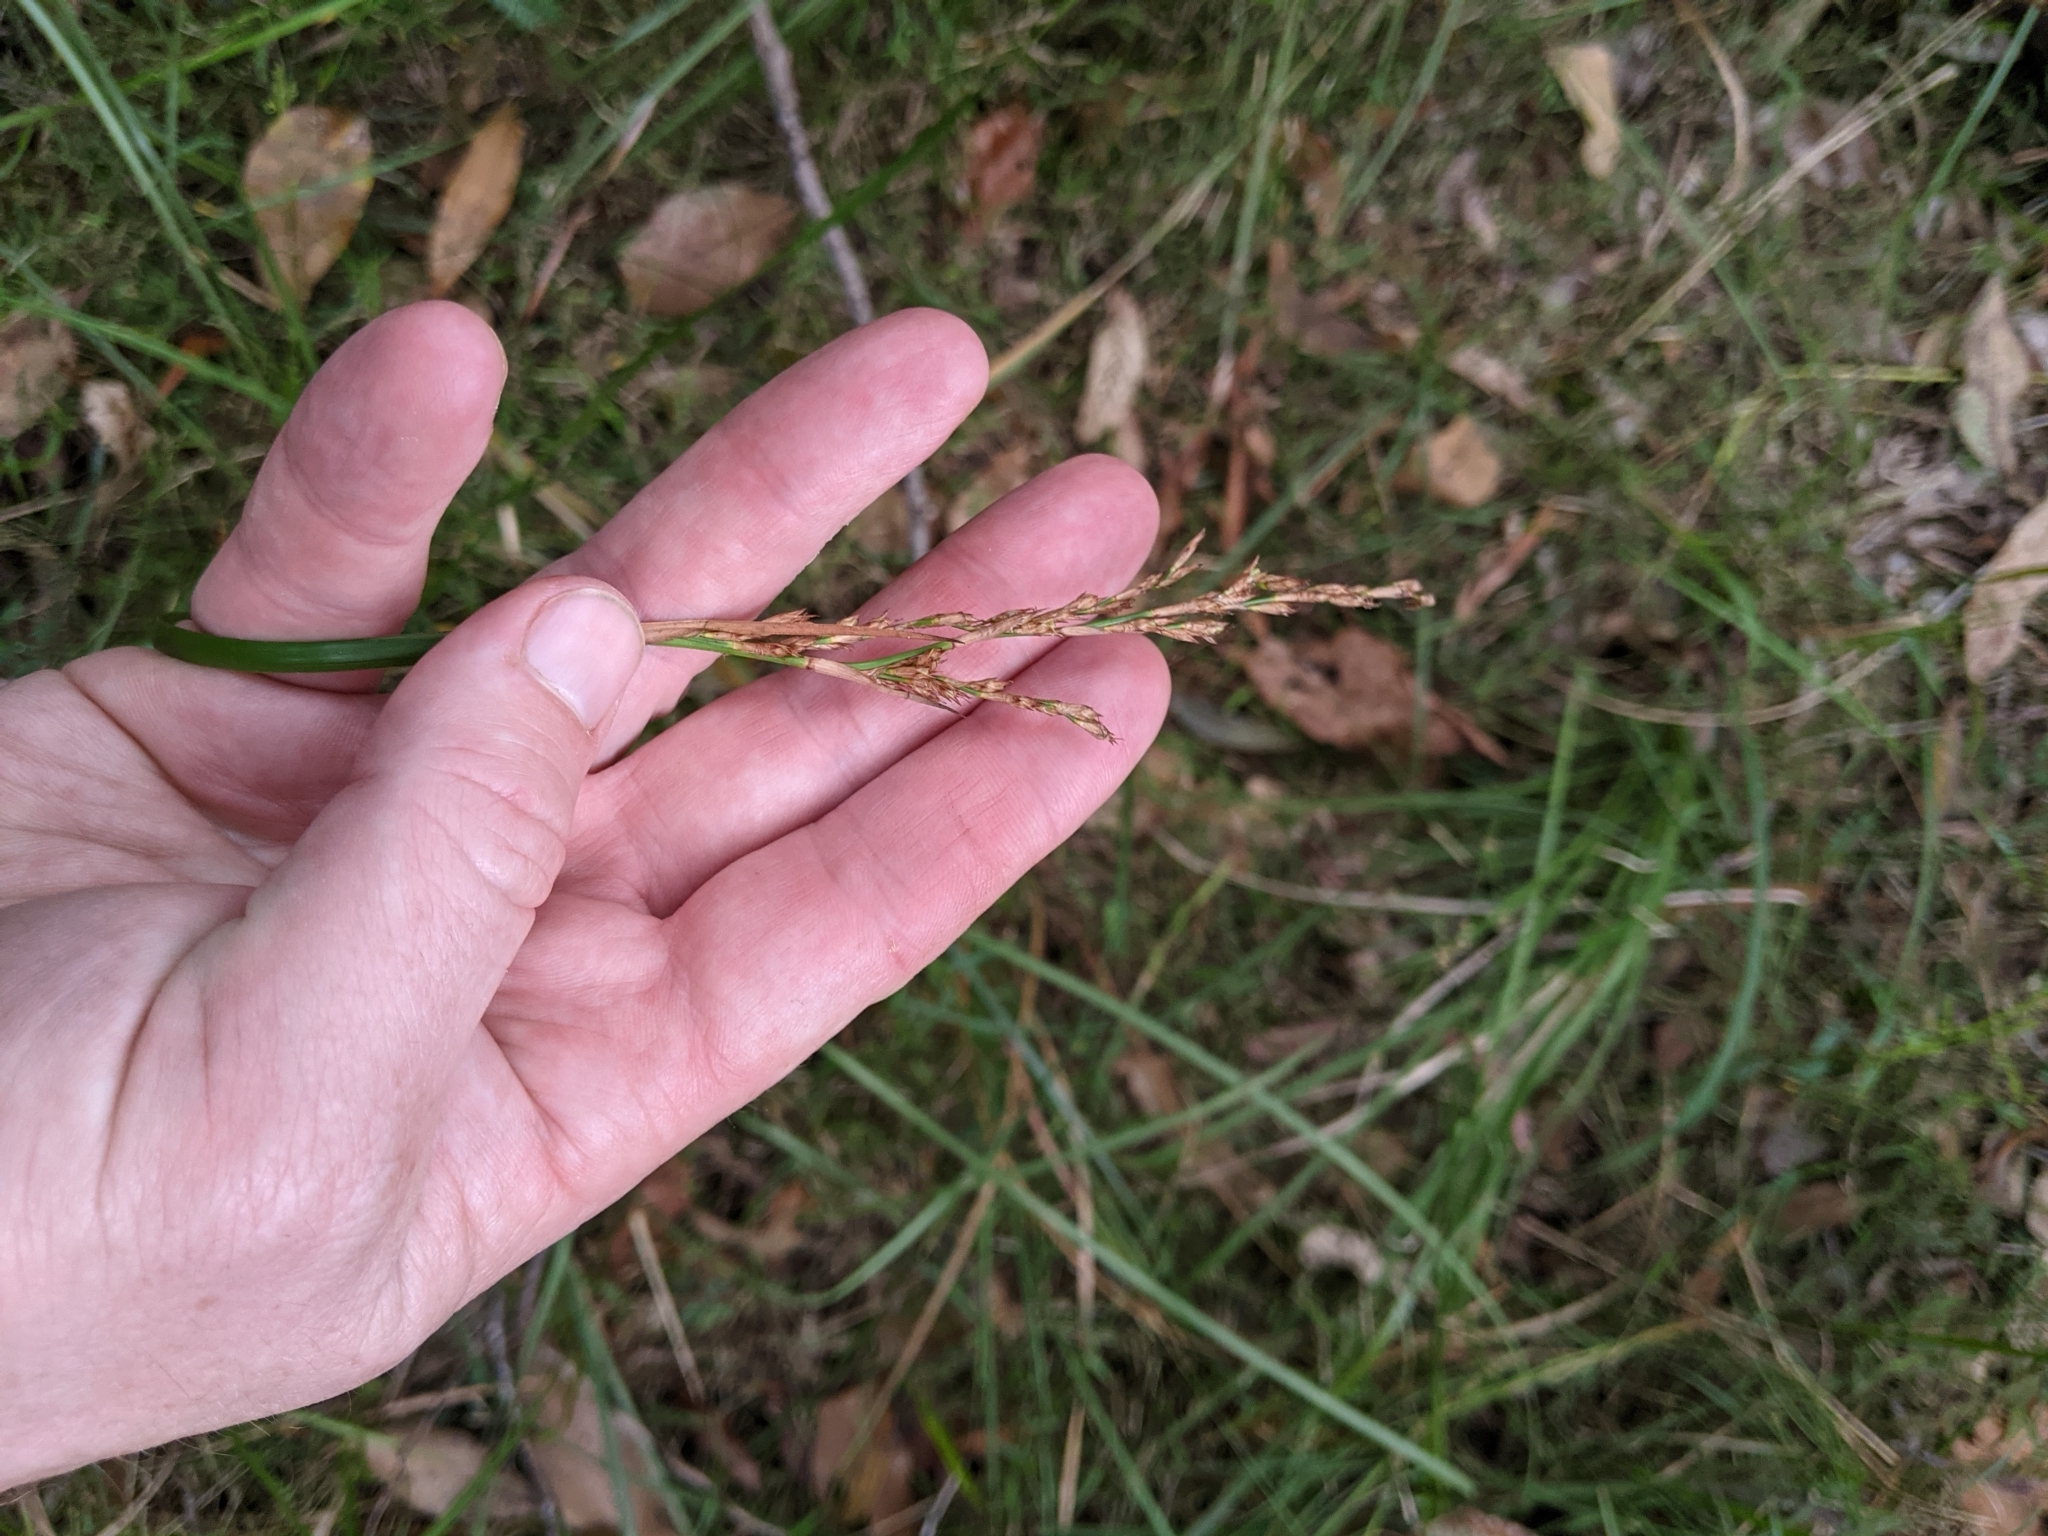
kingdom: Plantae
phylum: Tracheophyta
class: Liliopsida
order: Poales
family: Cyperaceae
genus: Lepidosperma
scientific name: Lepidosperma laterale
